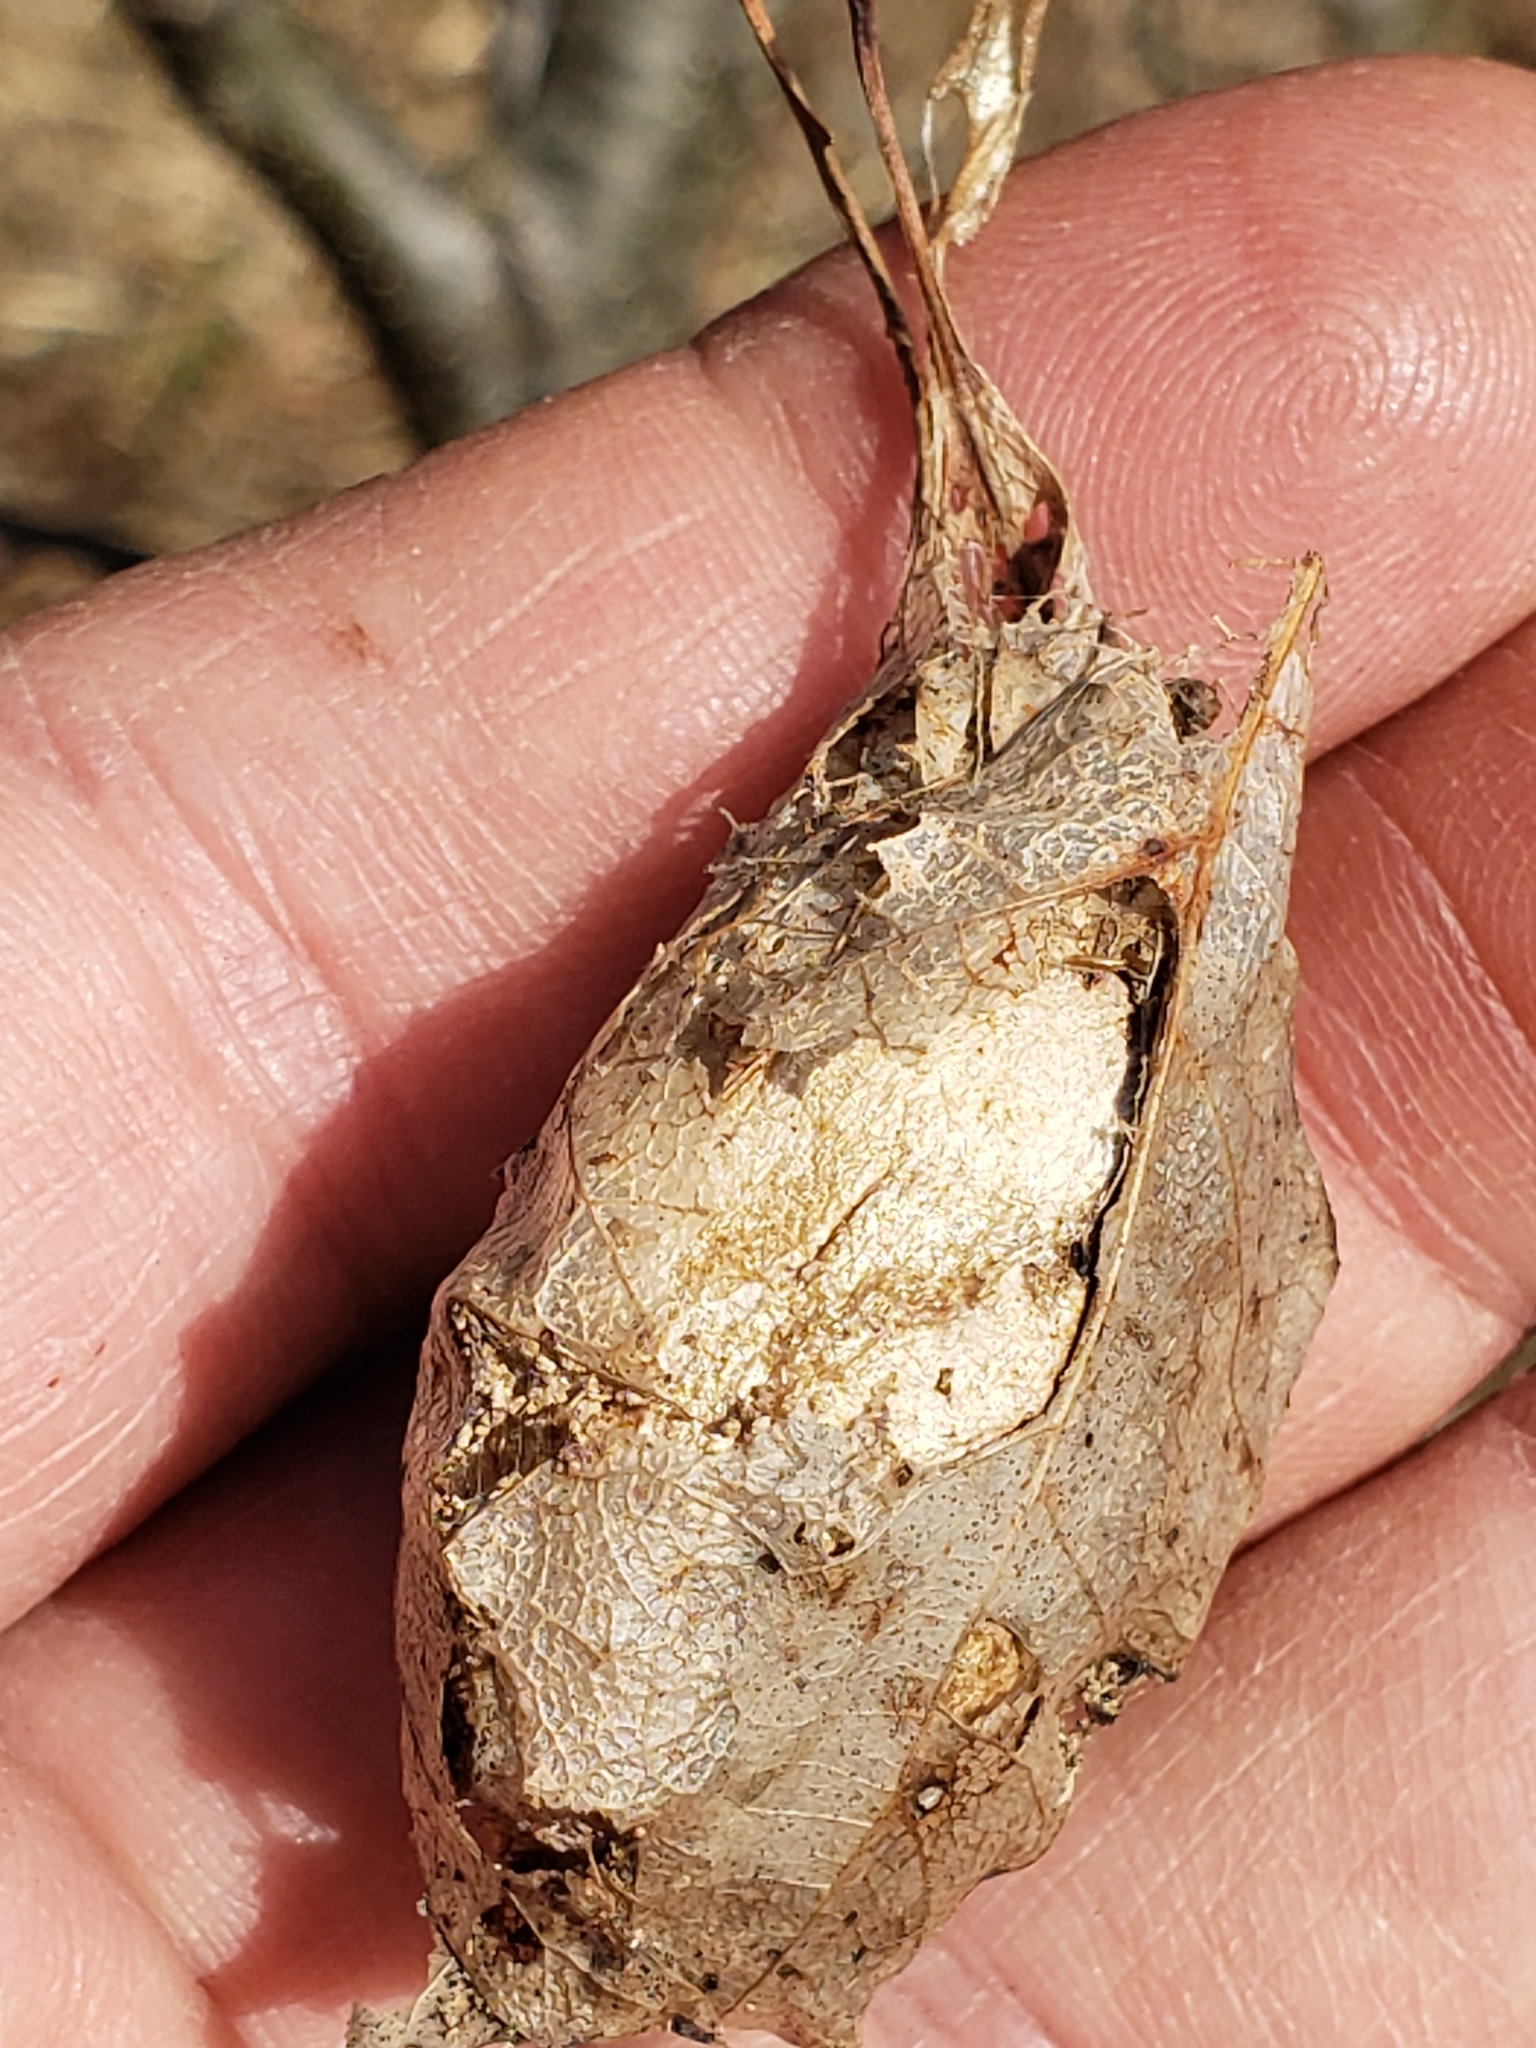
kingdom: Animalia
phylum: Arthropoda
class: Insecta
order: Lepidoptera
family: Saturniidae
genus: Antheraea
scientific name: Antheraea polyphemus
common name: Polyphemus moth
